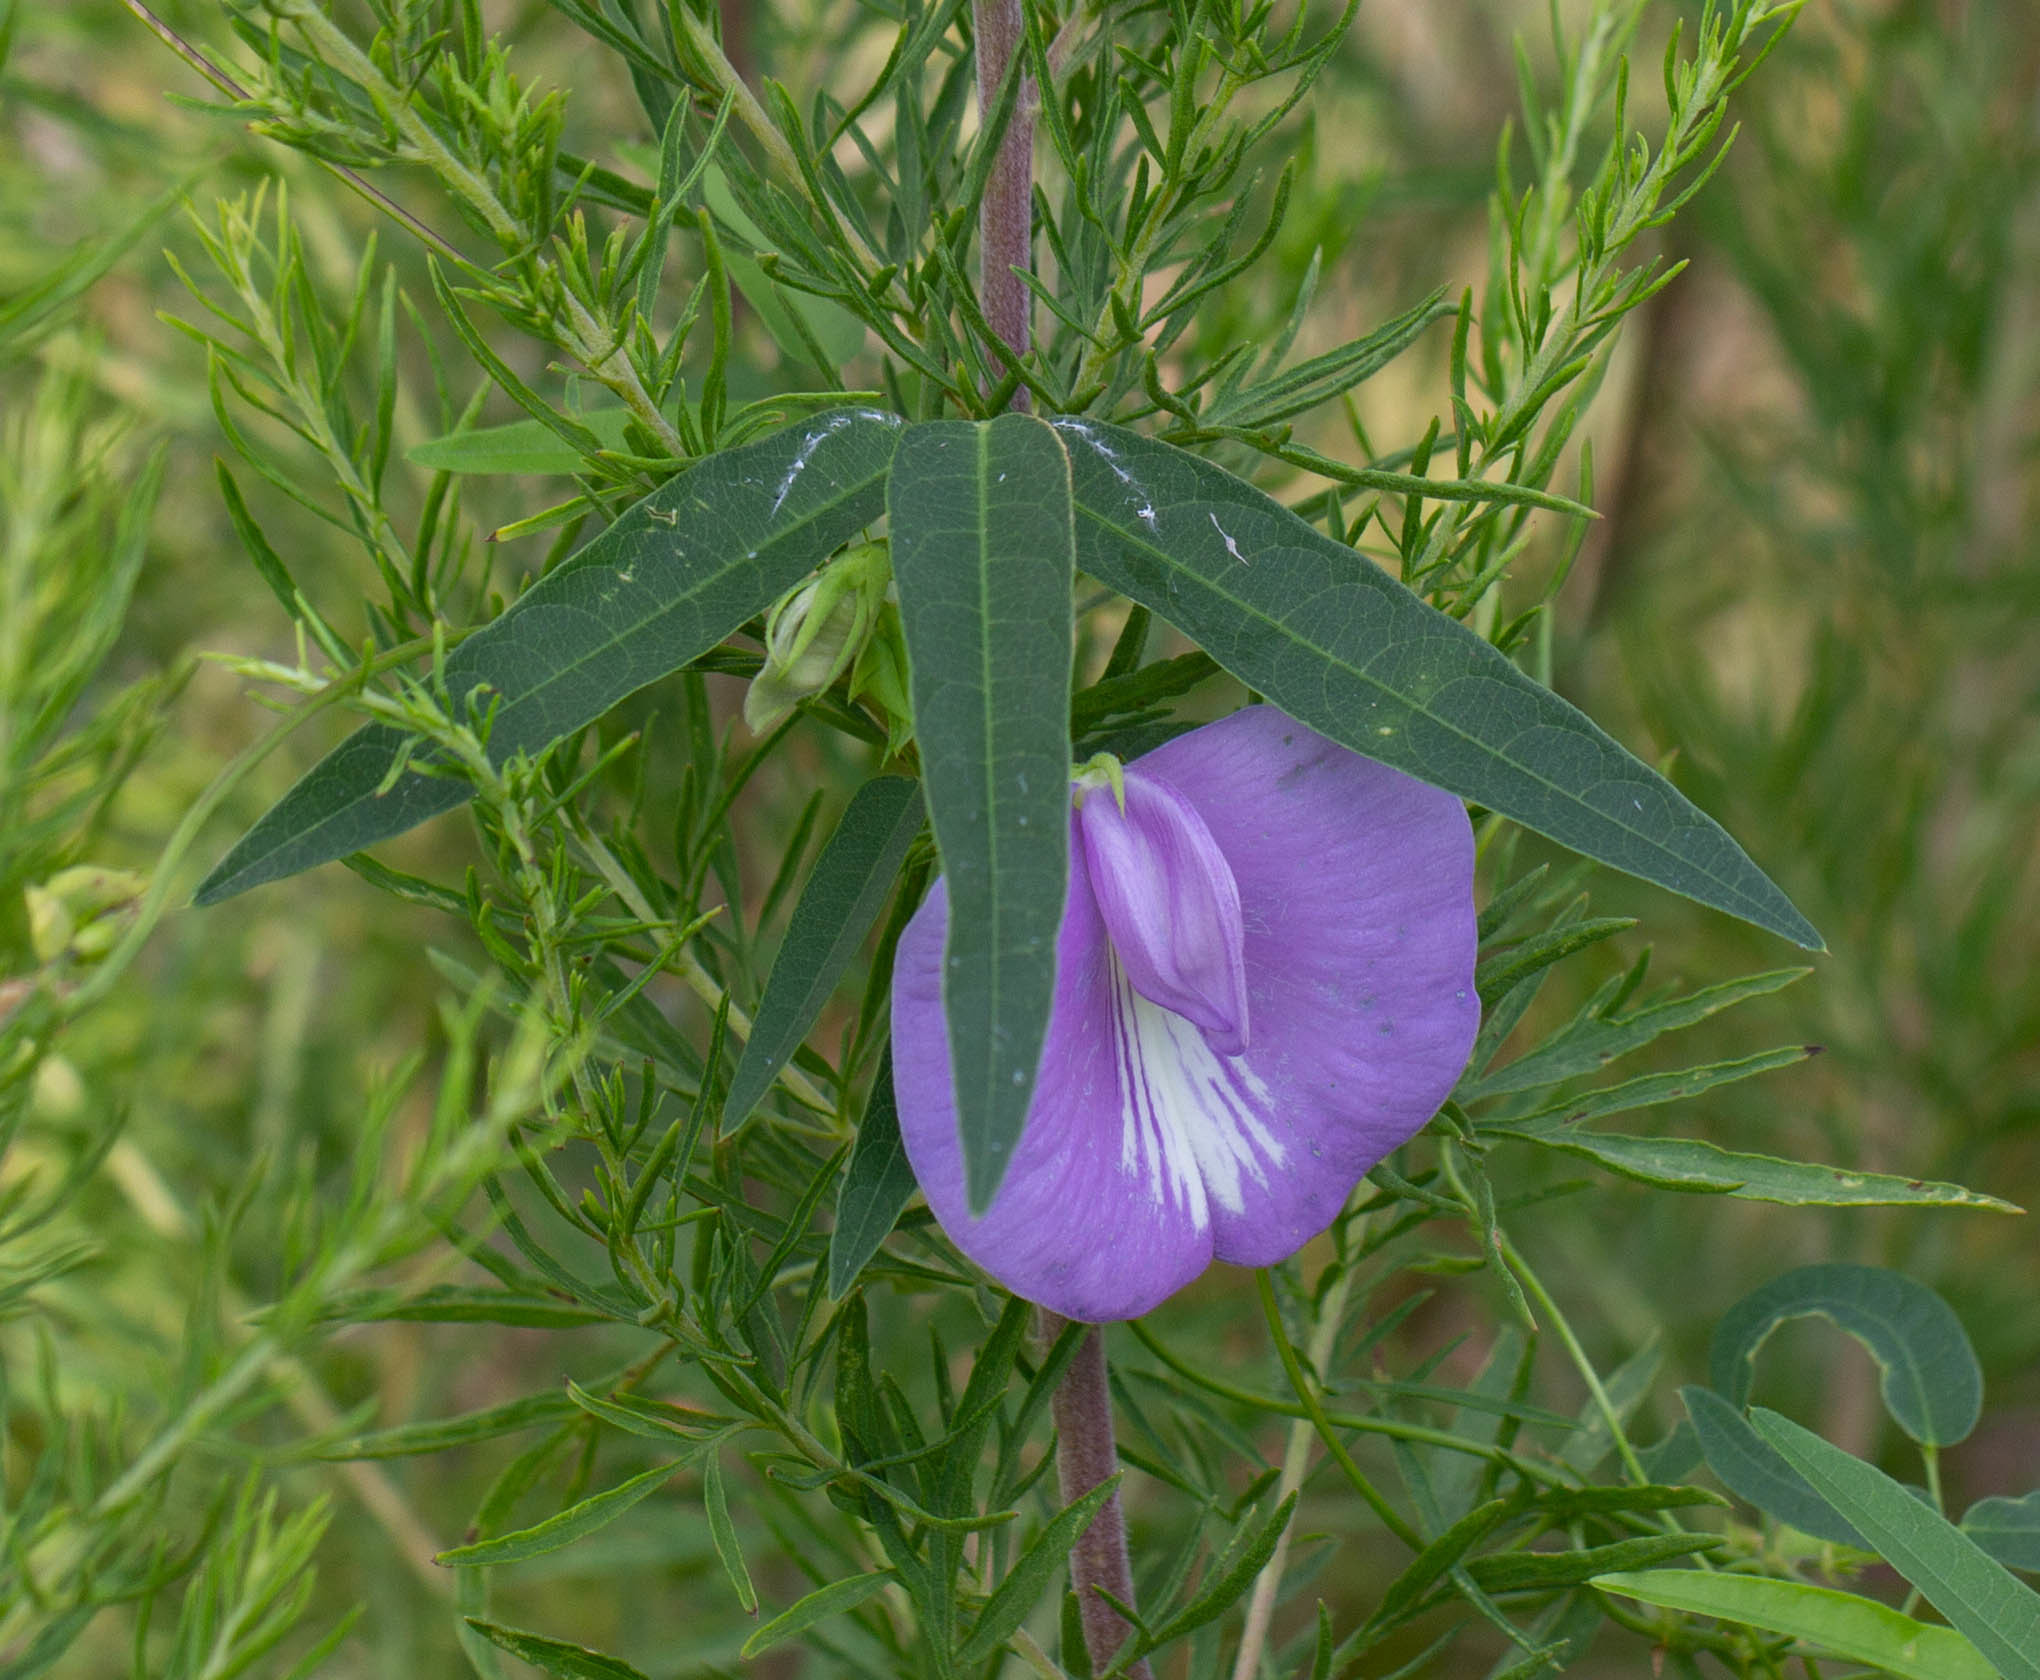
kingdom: Plantae
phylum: Tracheophyta
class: Magnoliopsida
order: Fabales
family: Fabaceae
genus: Centrosema
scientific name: Centrosema virginianum
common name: Butterfly-pea
